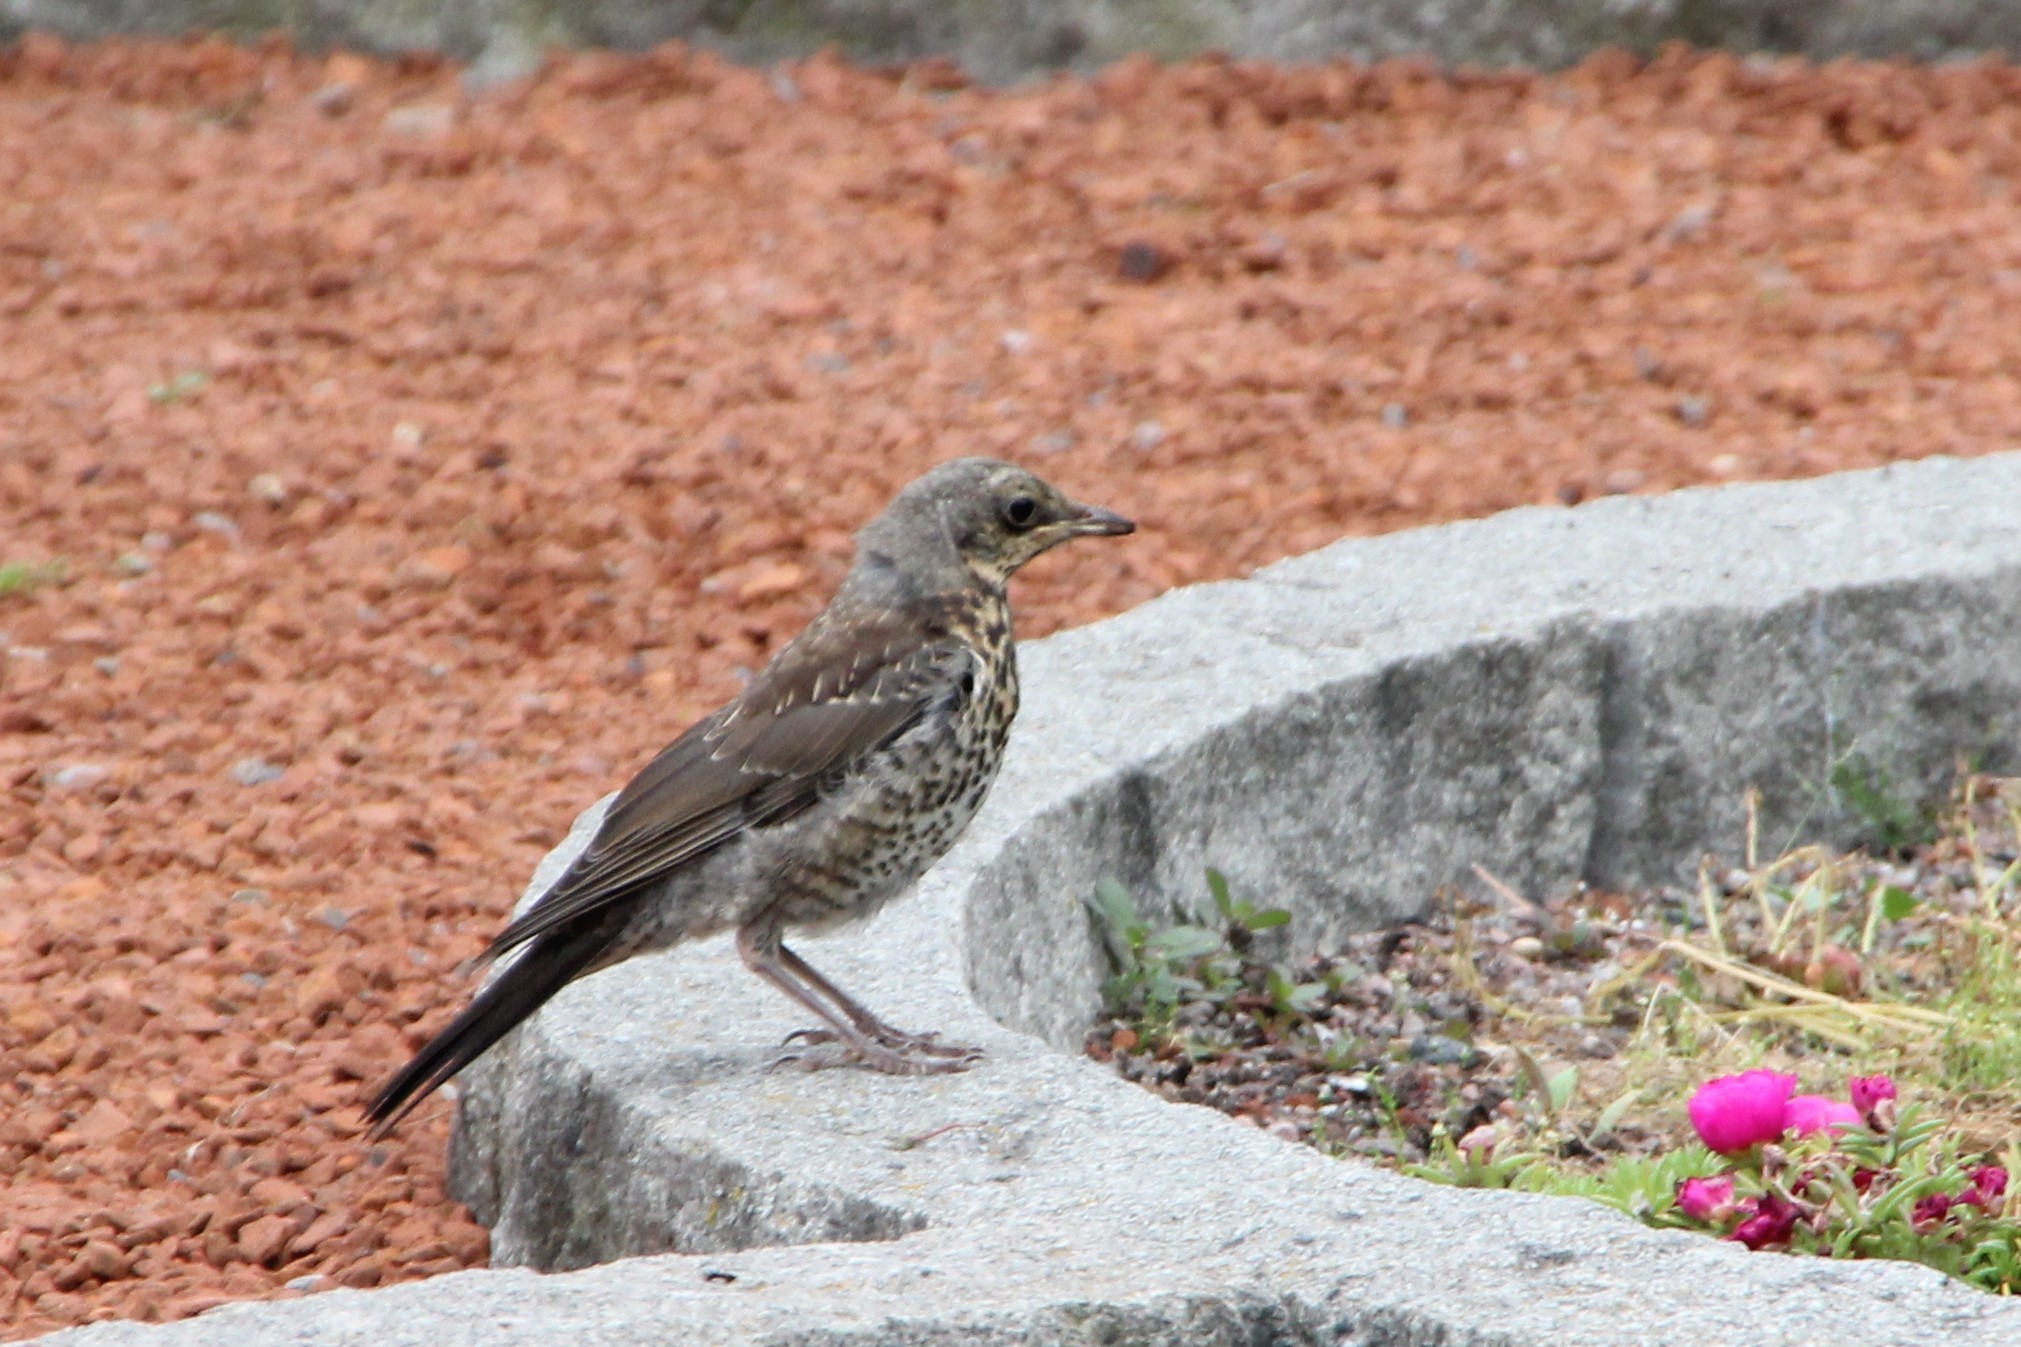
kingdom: Animalia
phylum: Chordata
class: Aves
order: Passeriformes
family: Turdidae
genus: Turdus
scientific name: Turdus pilaris
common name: Fieldfare
